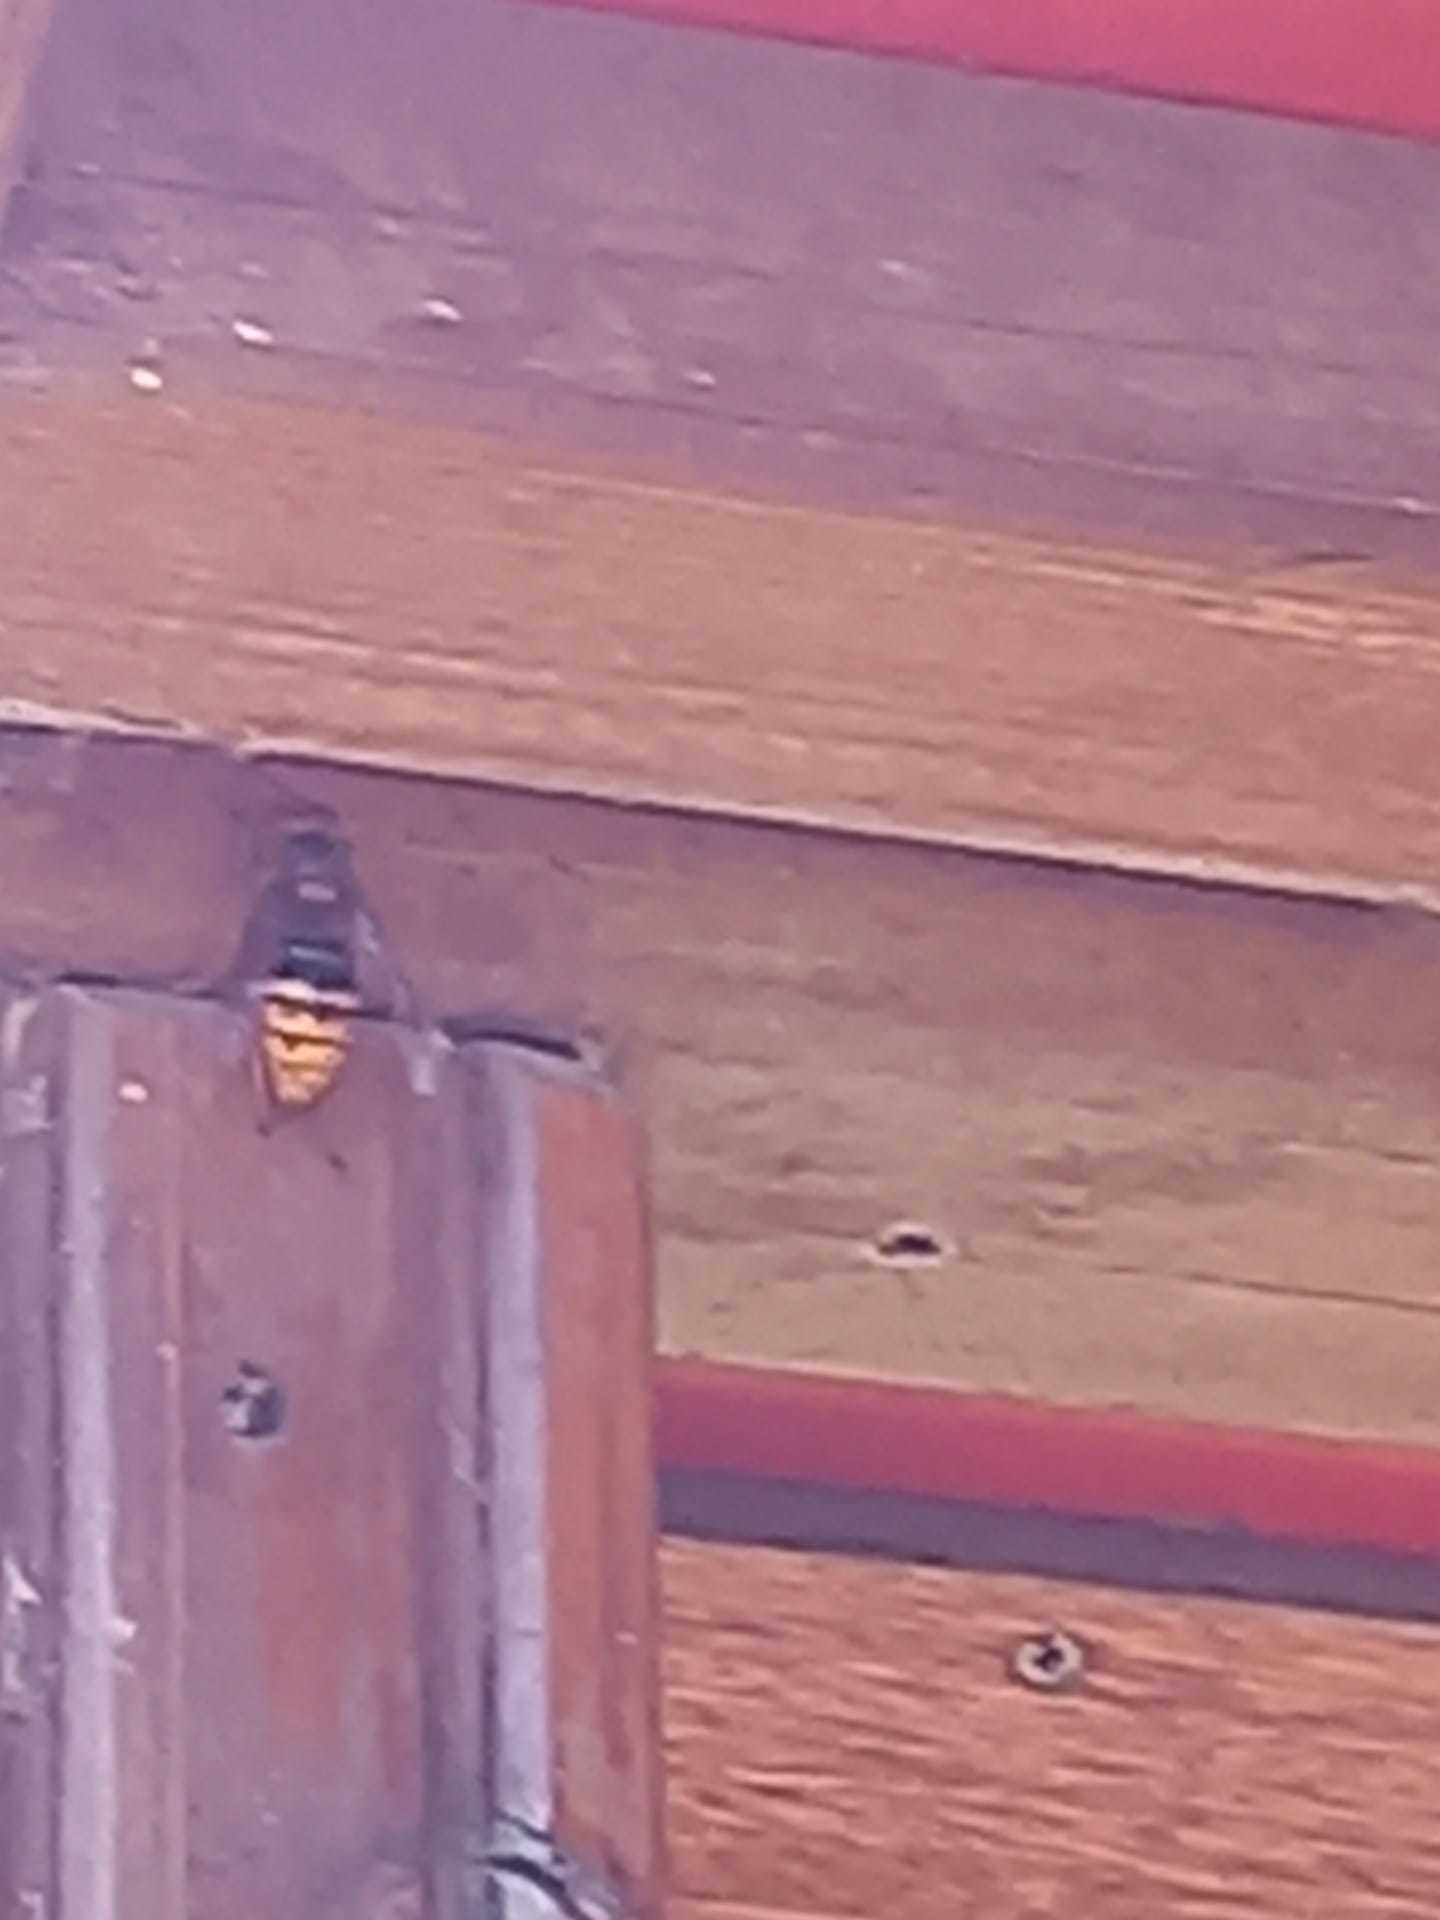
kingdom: Animalia
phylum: Arthropoda
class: Insecta
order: Hymenoptera
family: Vespidae
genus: Vespa
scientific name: Vespa crabro
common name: Hornet
